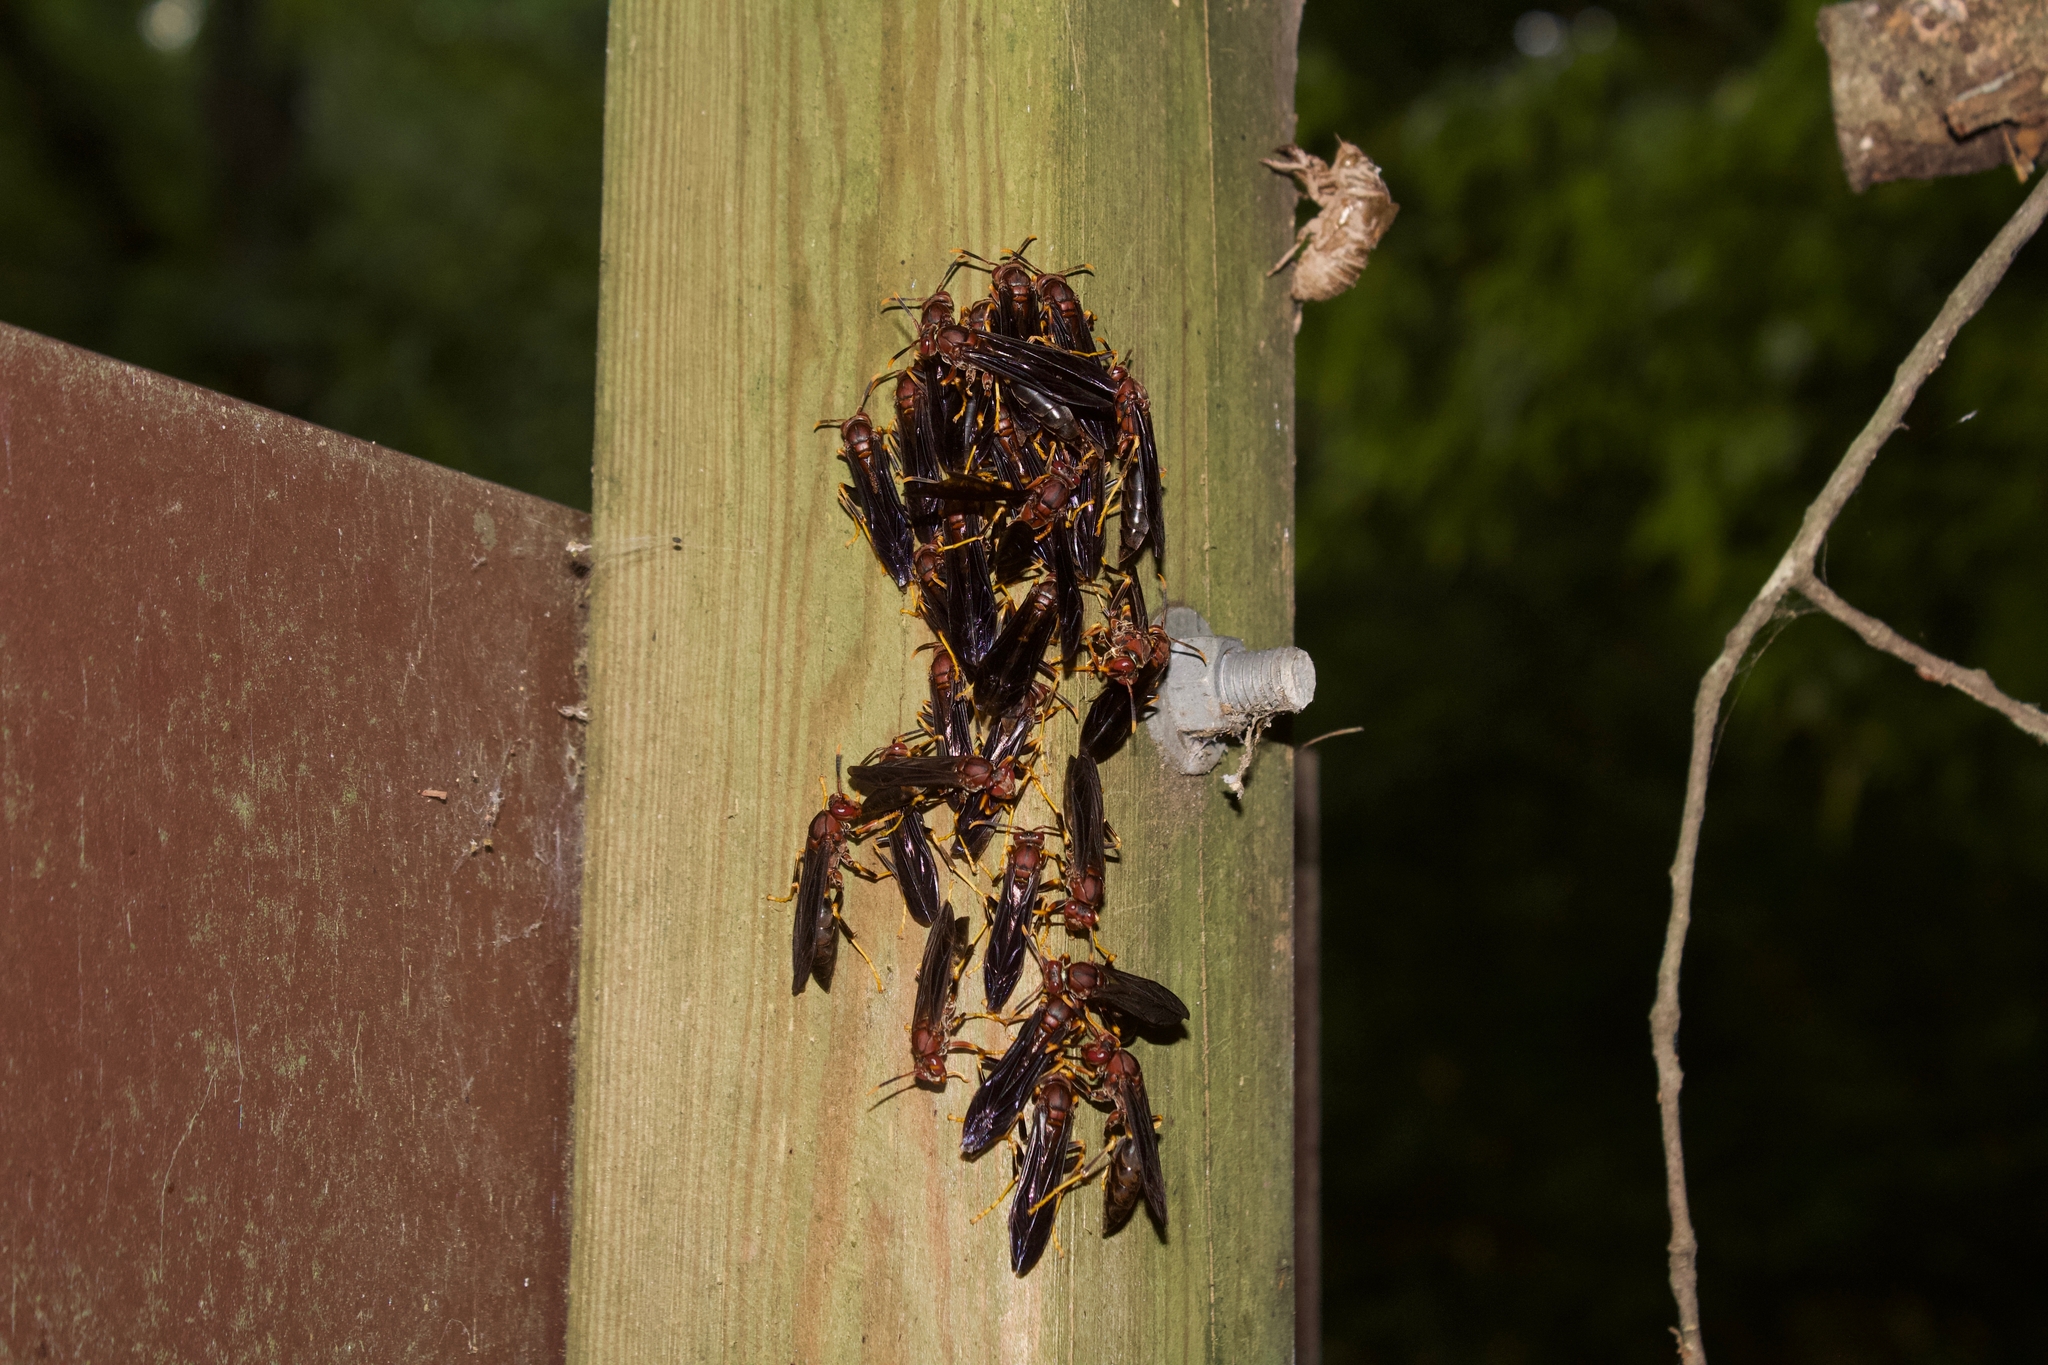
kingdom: Animalia
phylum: Arthropoda
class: Insecta
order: Hymenoptera
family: Eumenidae
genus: Polistes
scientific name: Polistes annularis
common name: Ringed paper wasp
